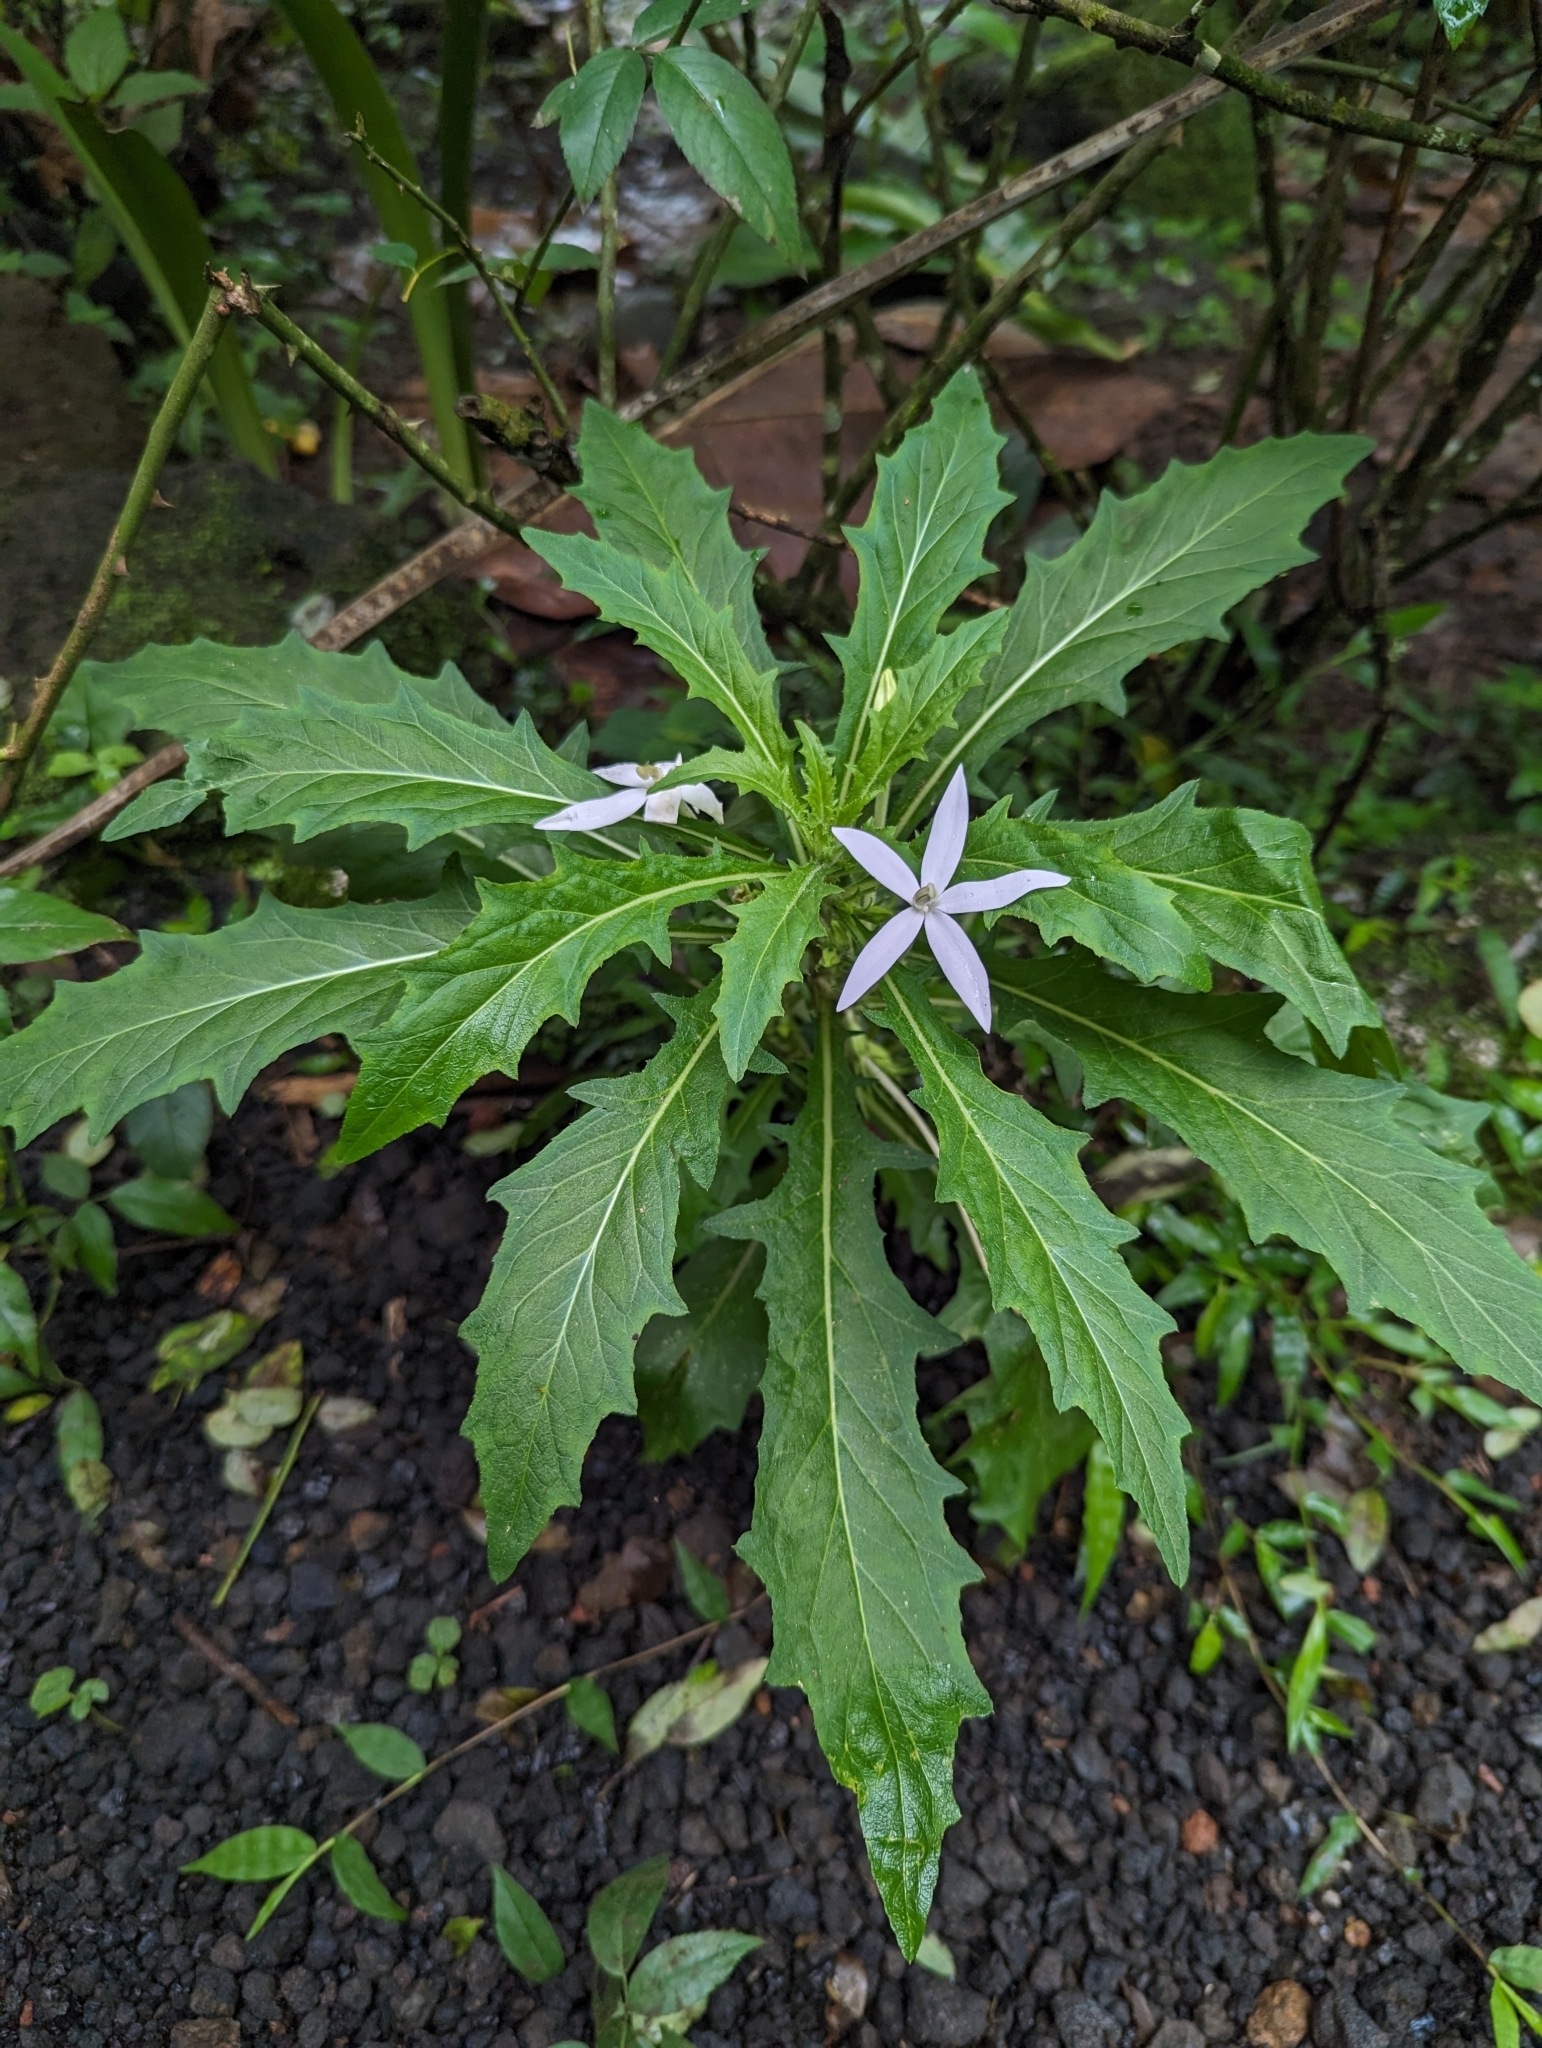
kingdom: Plantae
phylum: Tracheophyta
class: Magnoliopsida
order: Asterales
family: Campanulaceae
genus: Hippobroma
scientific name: Hippobroma longiflora
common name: Madamfate
